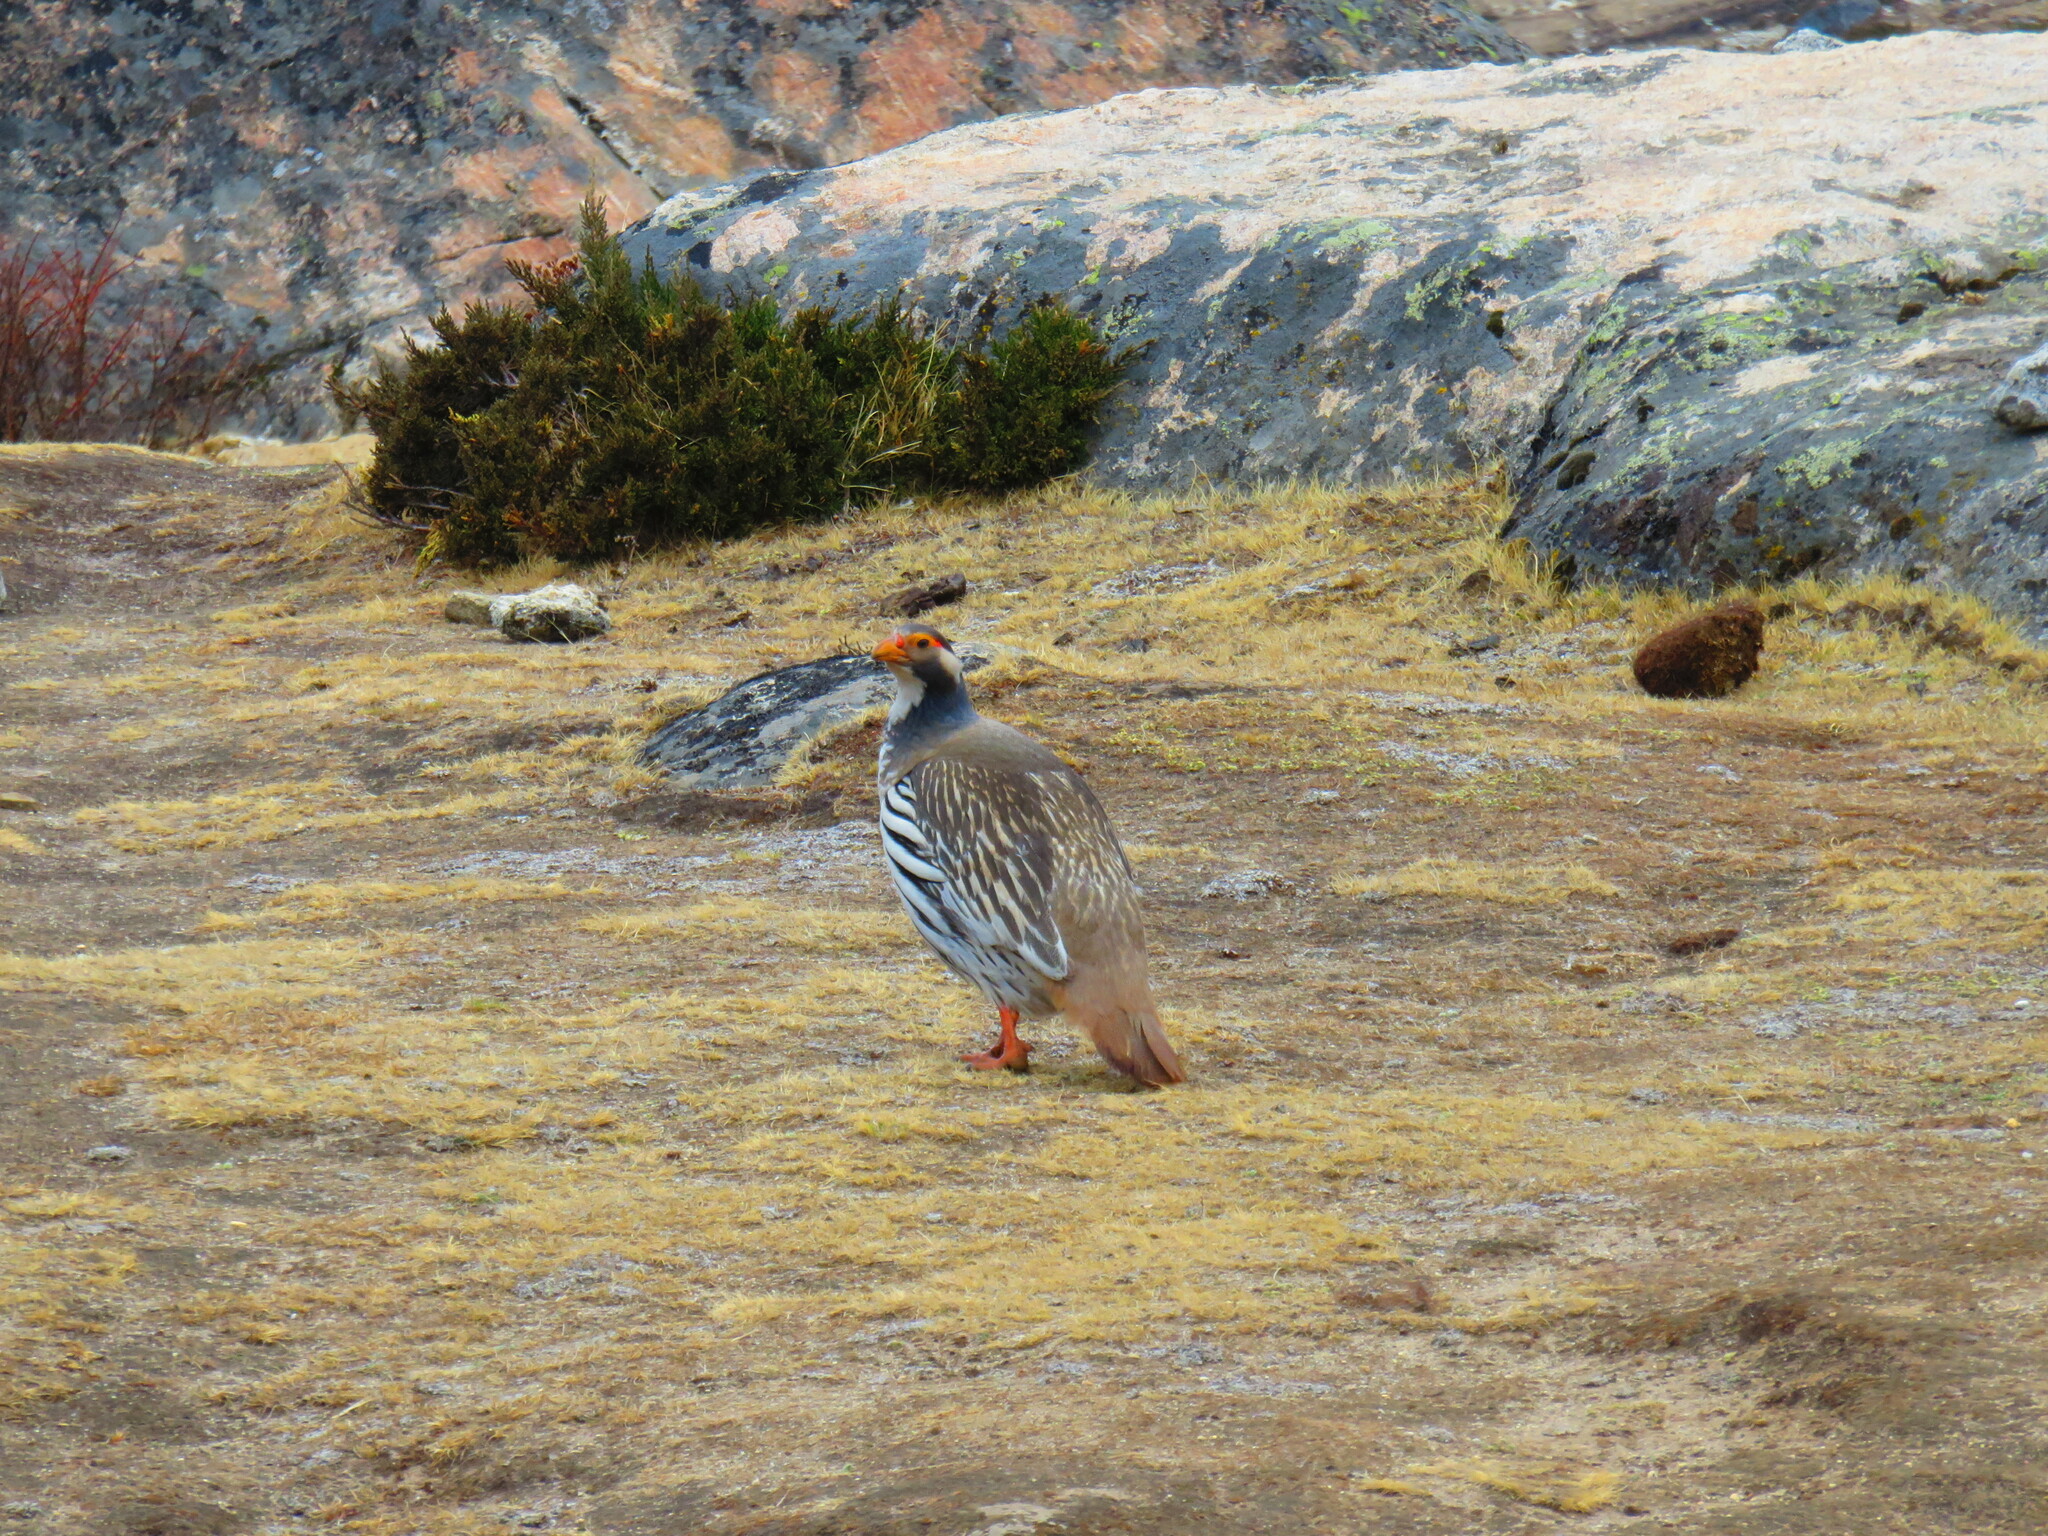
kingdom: Animalia
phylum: Chordata
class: Aves
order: Galliformes
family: Phasianidae
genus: Tetraogallus
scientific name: Tetraogallus tibetanus
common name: Tibetan snowcock
